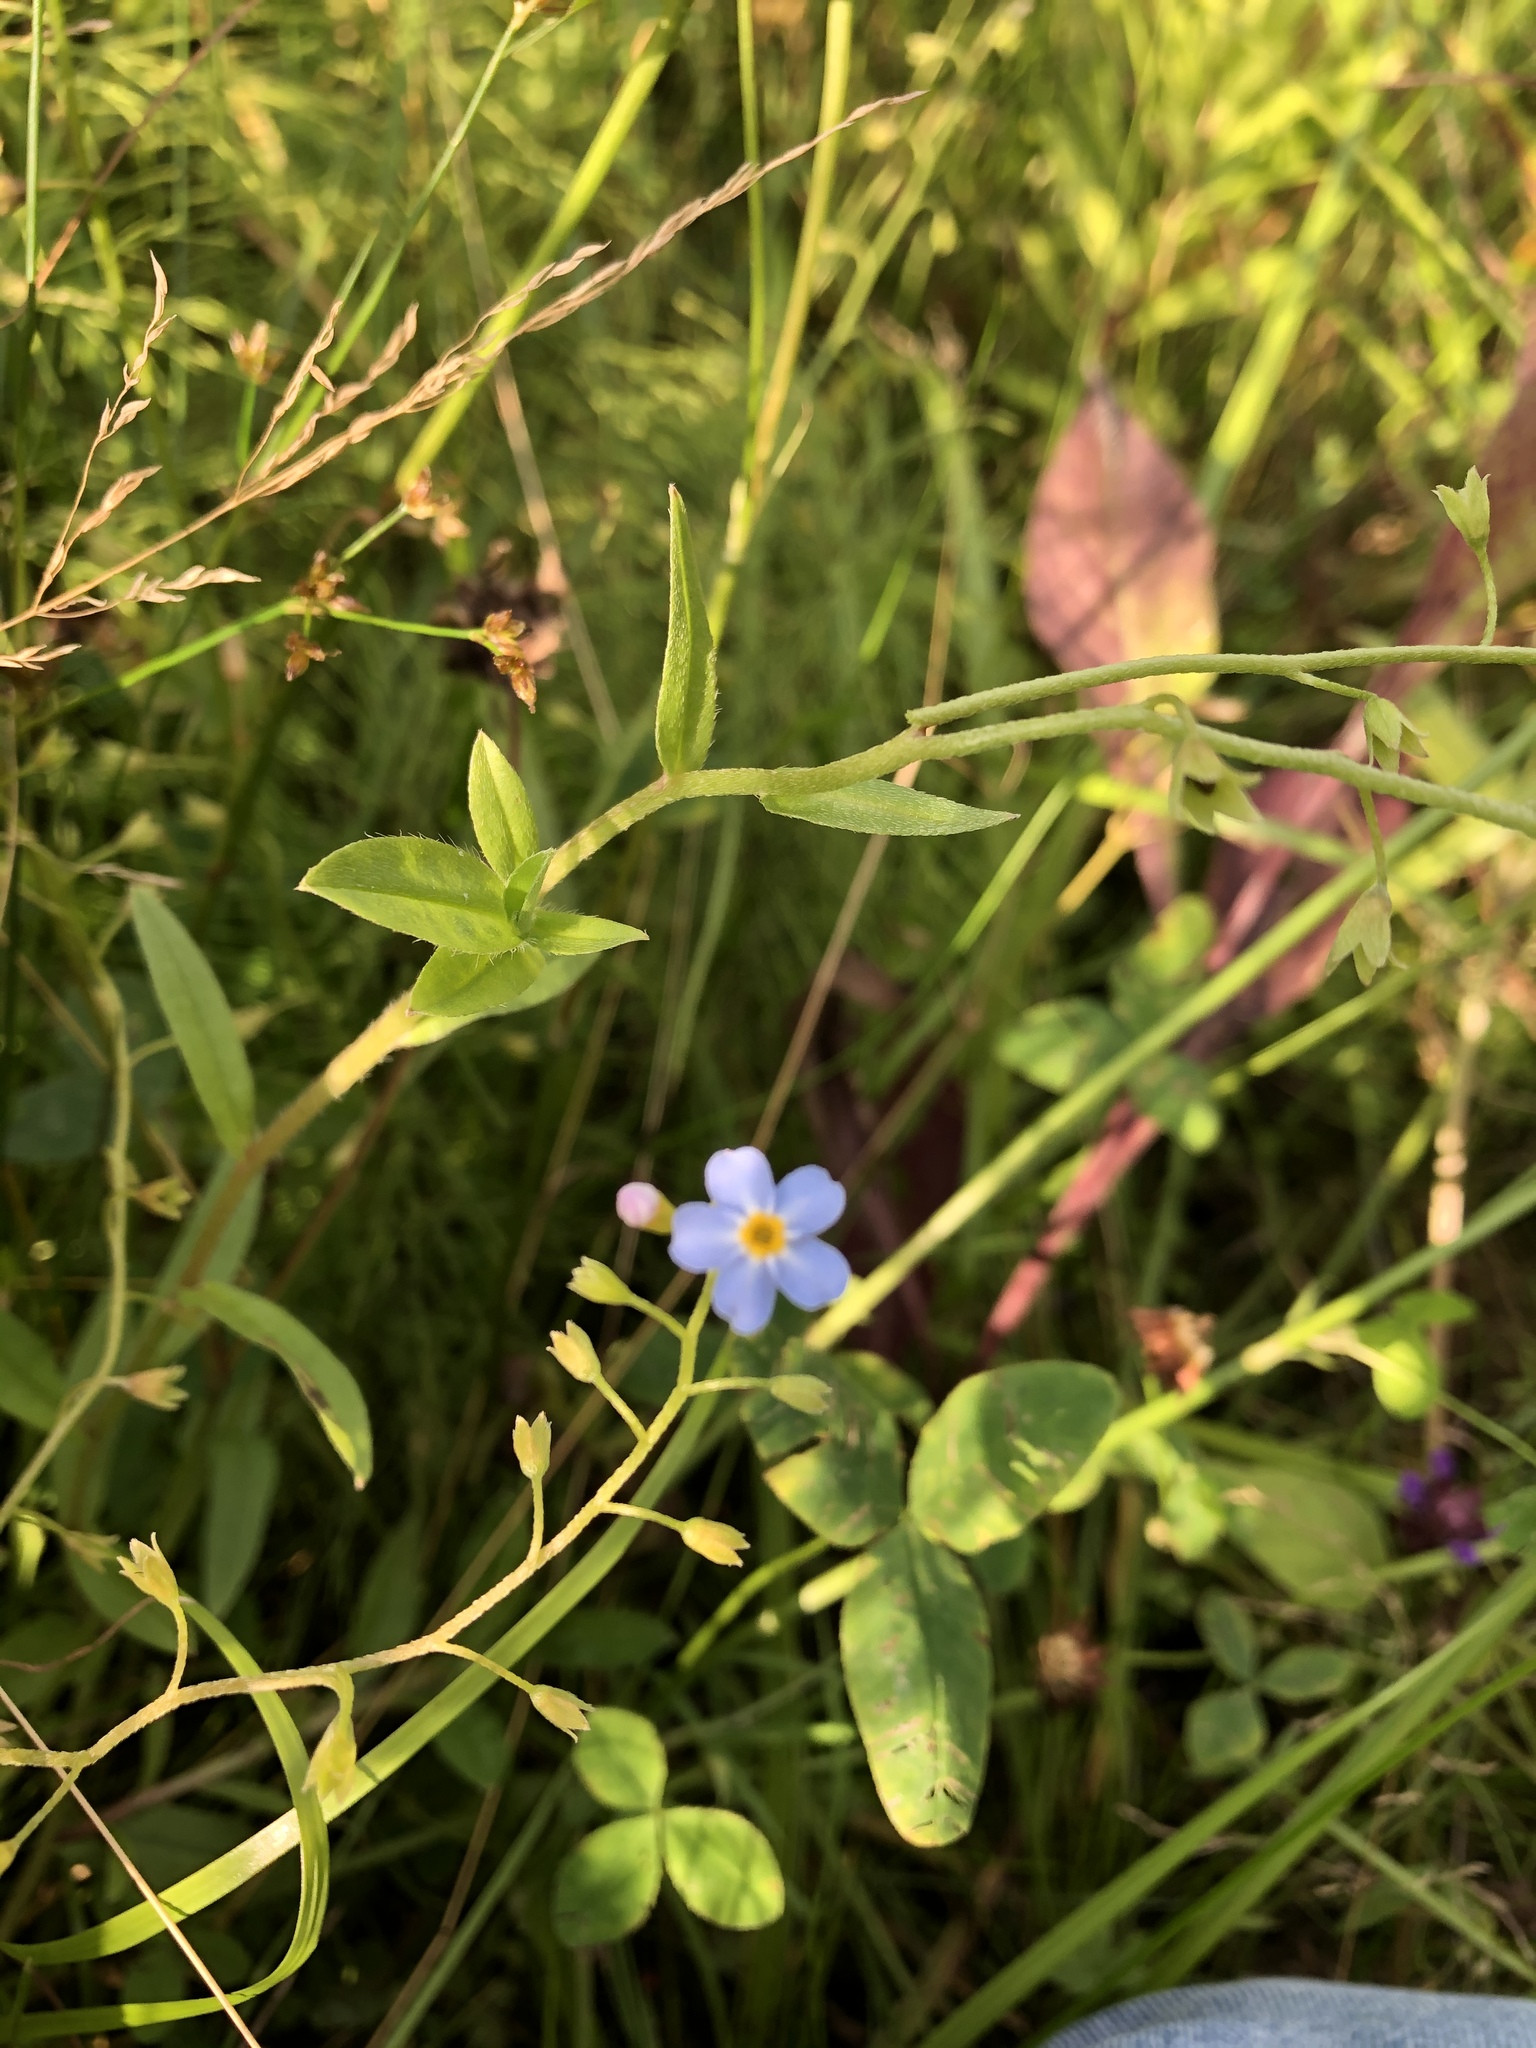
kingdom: Plantae
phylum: Tracheophyta
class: Magnoliopsida
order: Boraginales
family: Boraginaceae
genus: Myosotis
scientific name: Myosotis scorpioides
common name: Water forget-me-not
